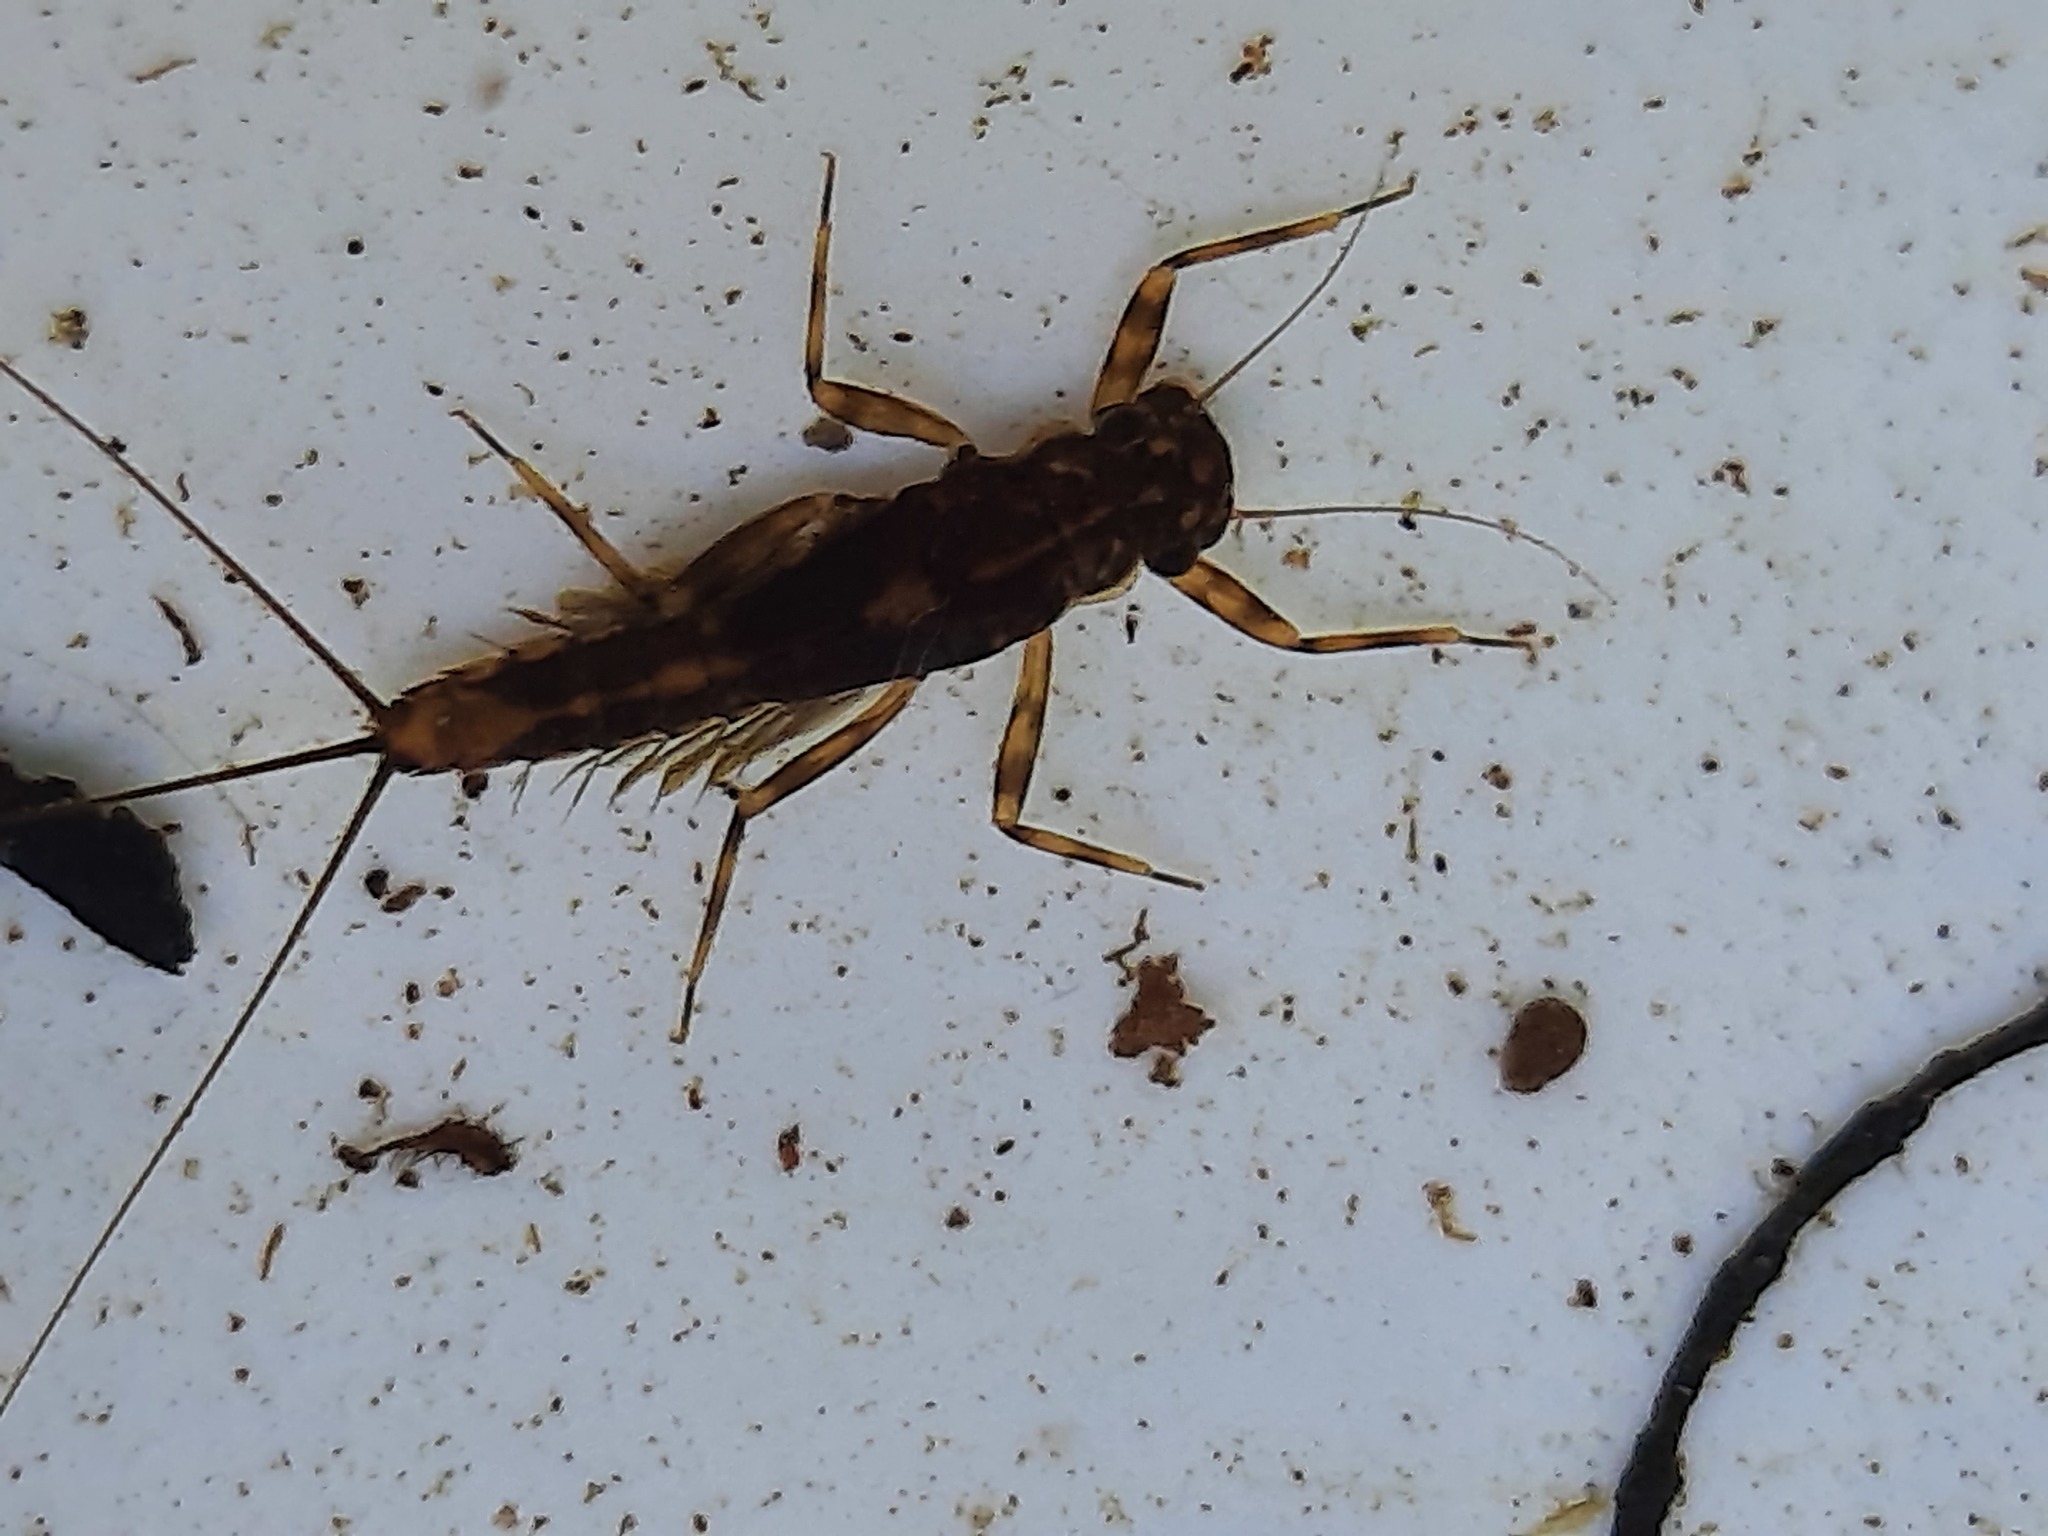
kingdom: Animalia
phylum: Arthropoda
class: Insecta
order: Ephemeroptera
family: Leptophlebiidae
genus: Zephlebia
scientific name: Zephlebia versicolor
